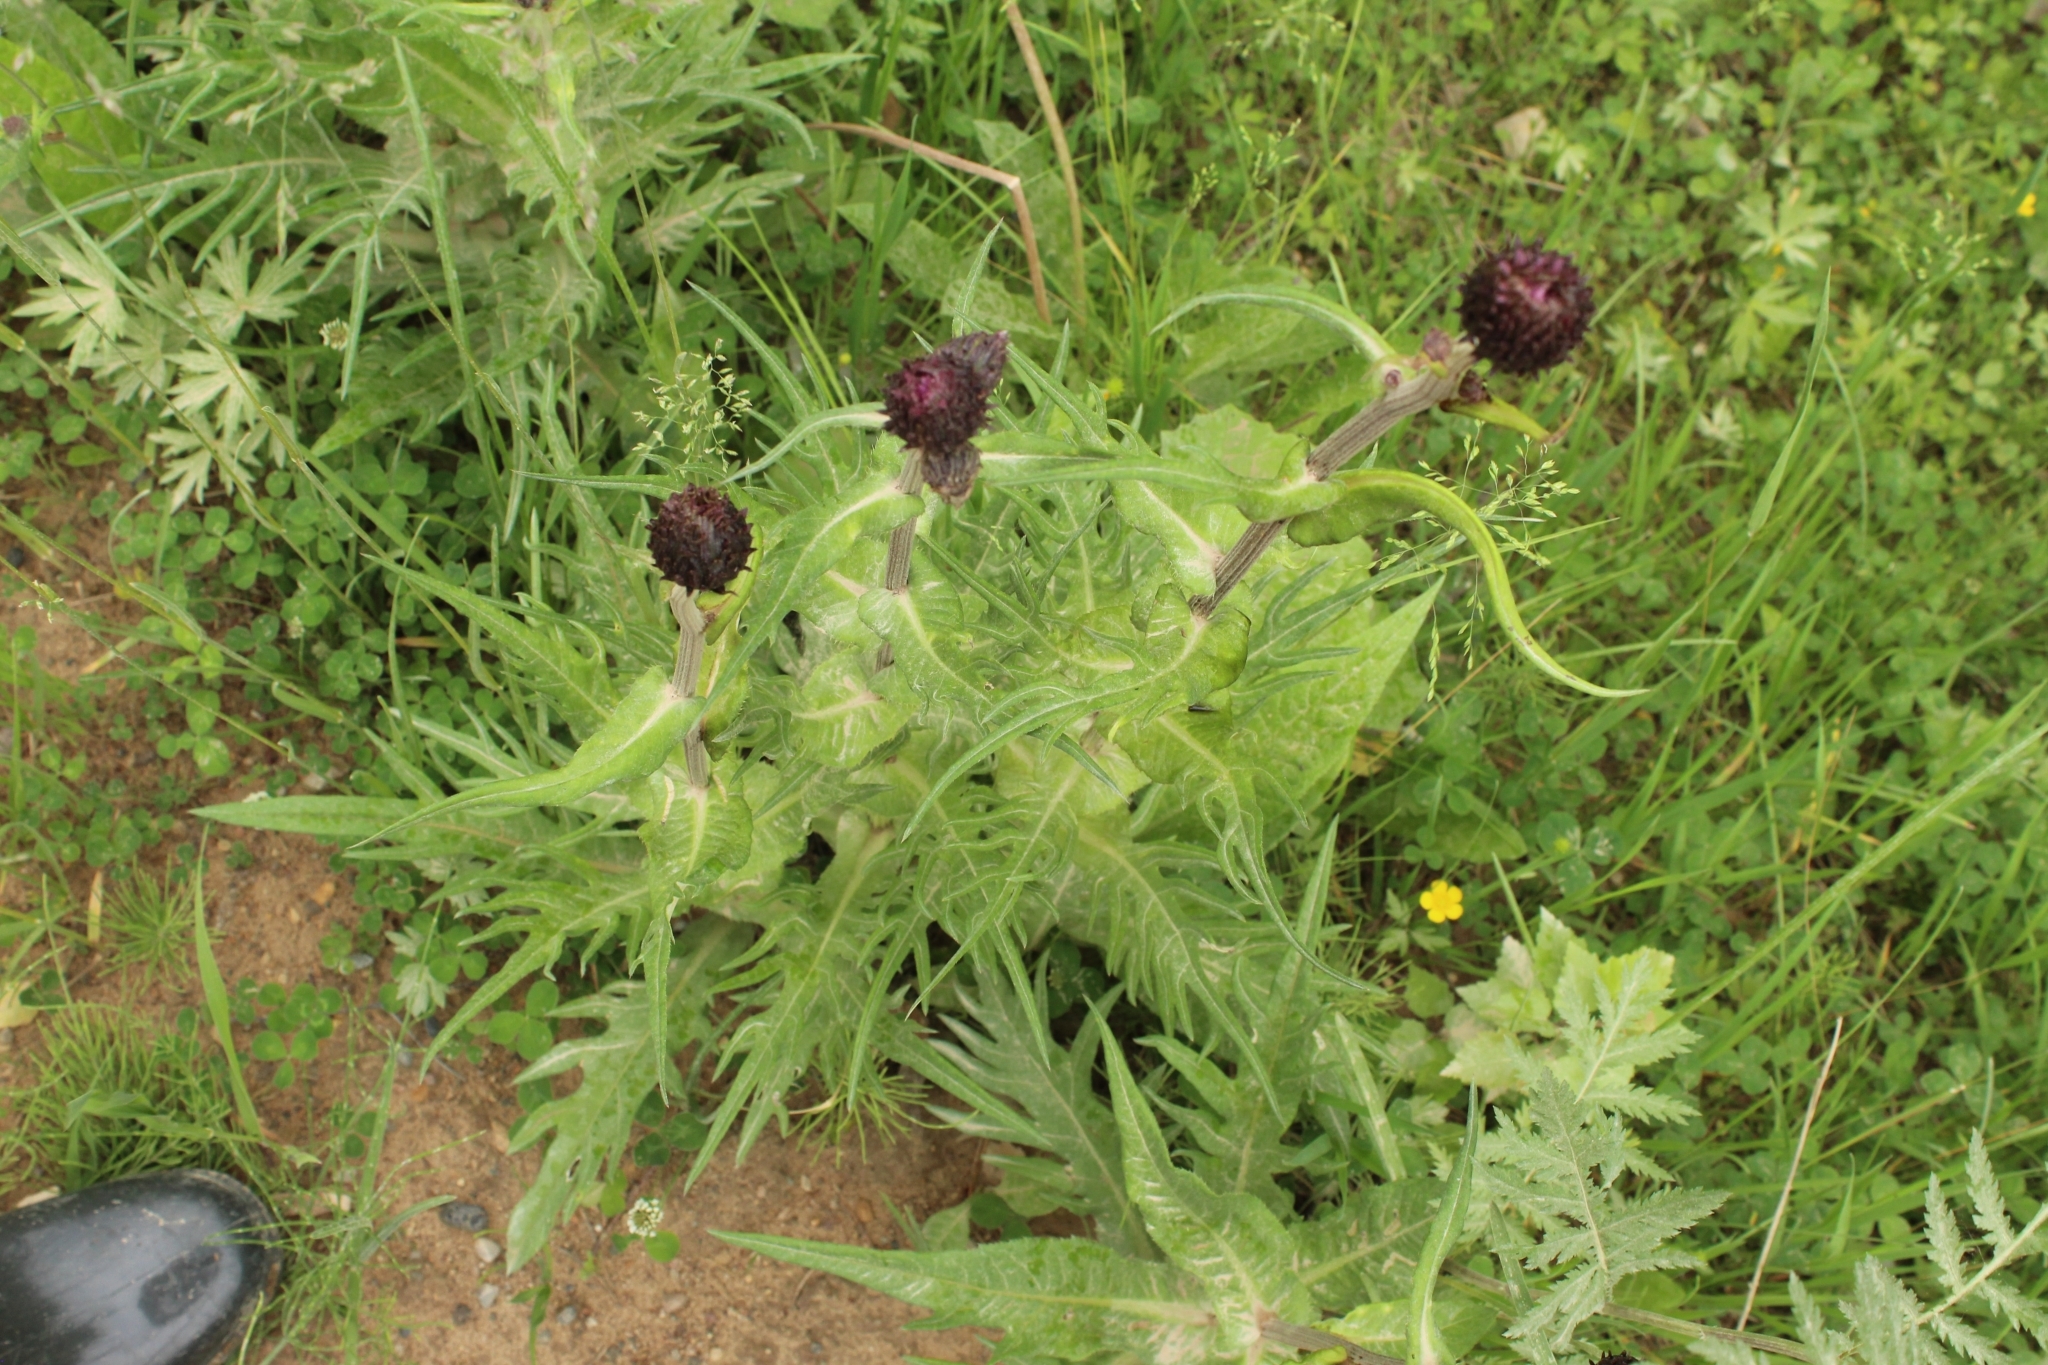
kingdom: Plantae
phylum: Tracheophyta
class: Magnoliopsida
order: Asterales
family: Asteraceae
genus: Cirsium
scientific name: Cirsium heterophyllum
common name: Melancholy thistle
